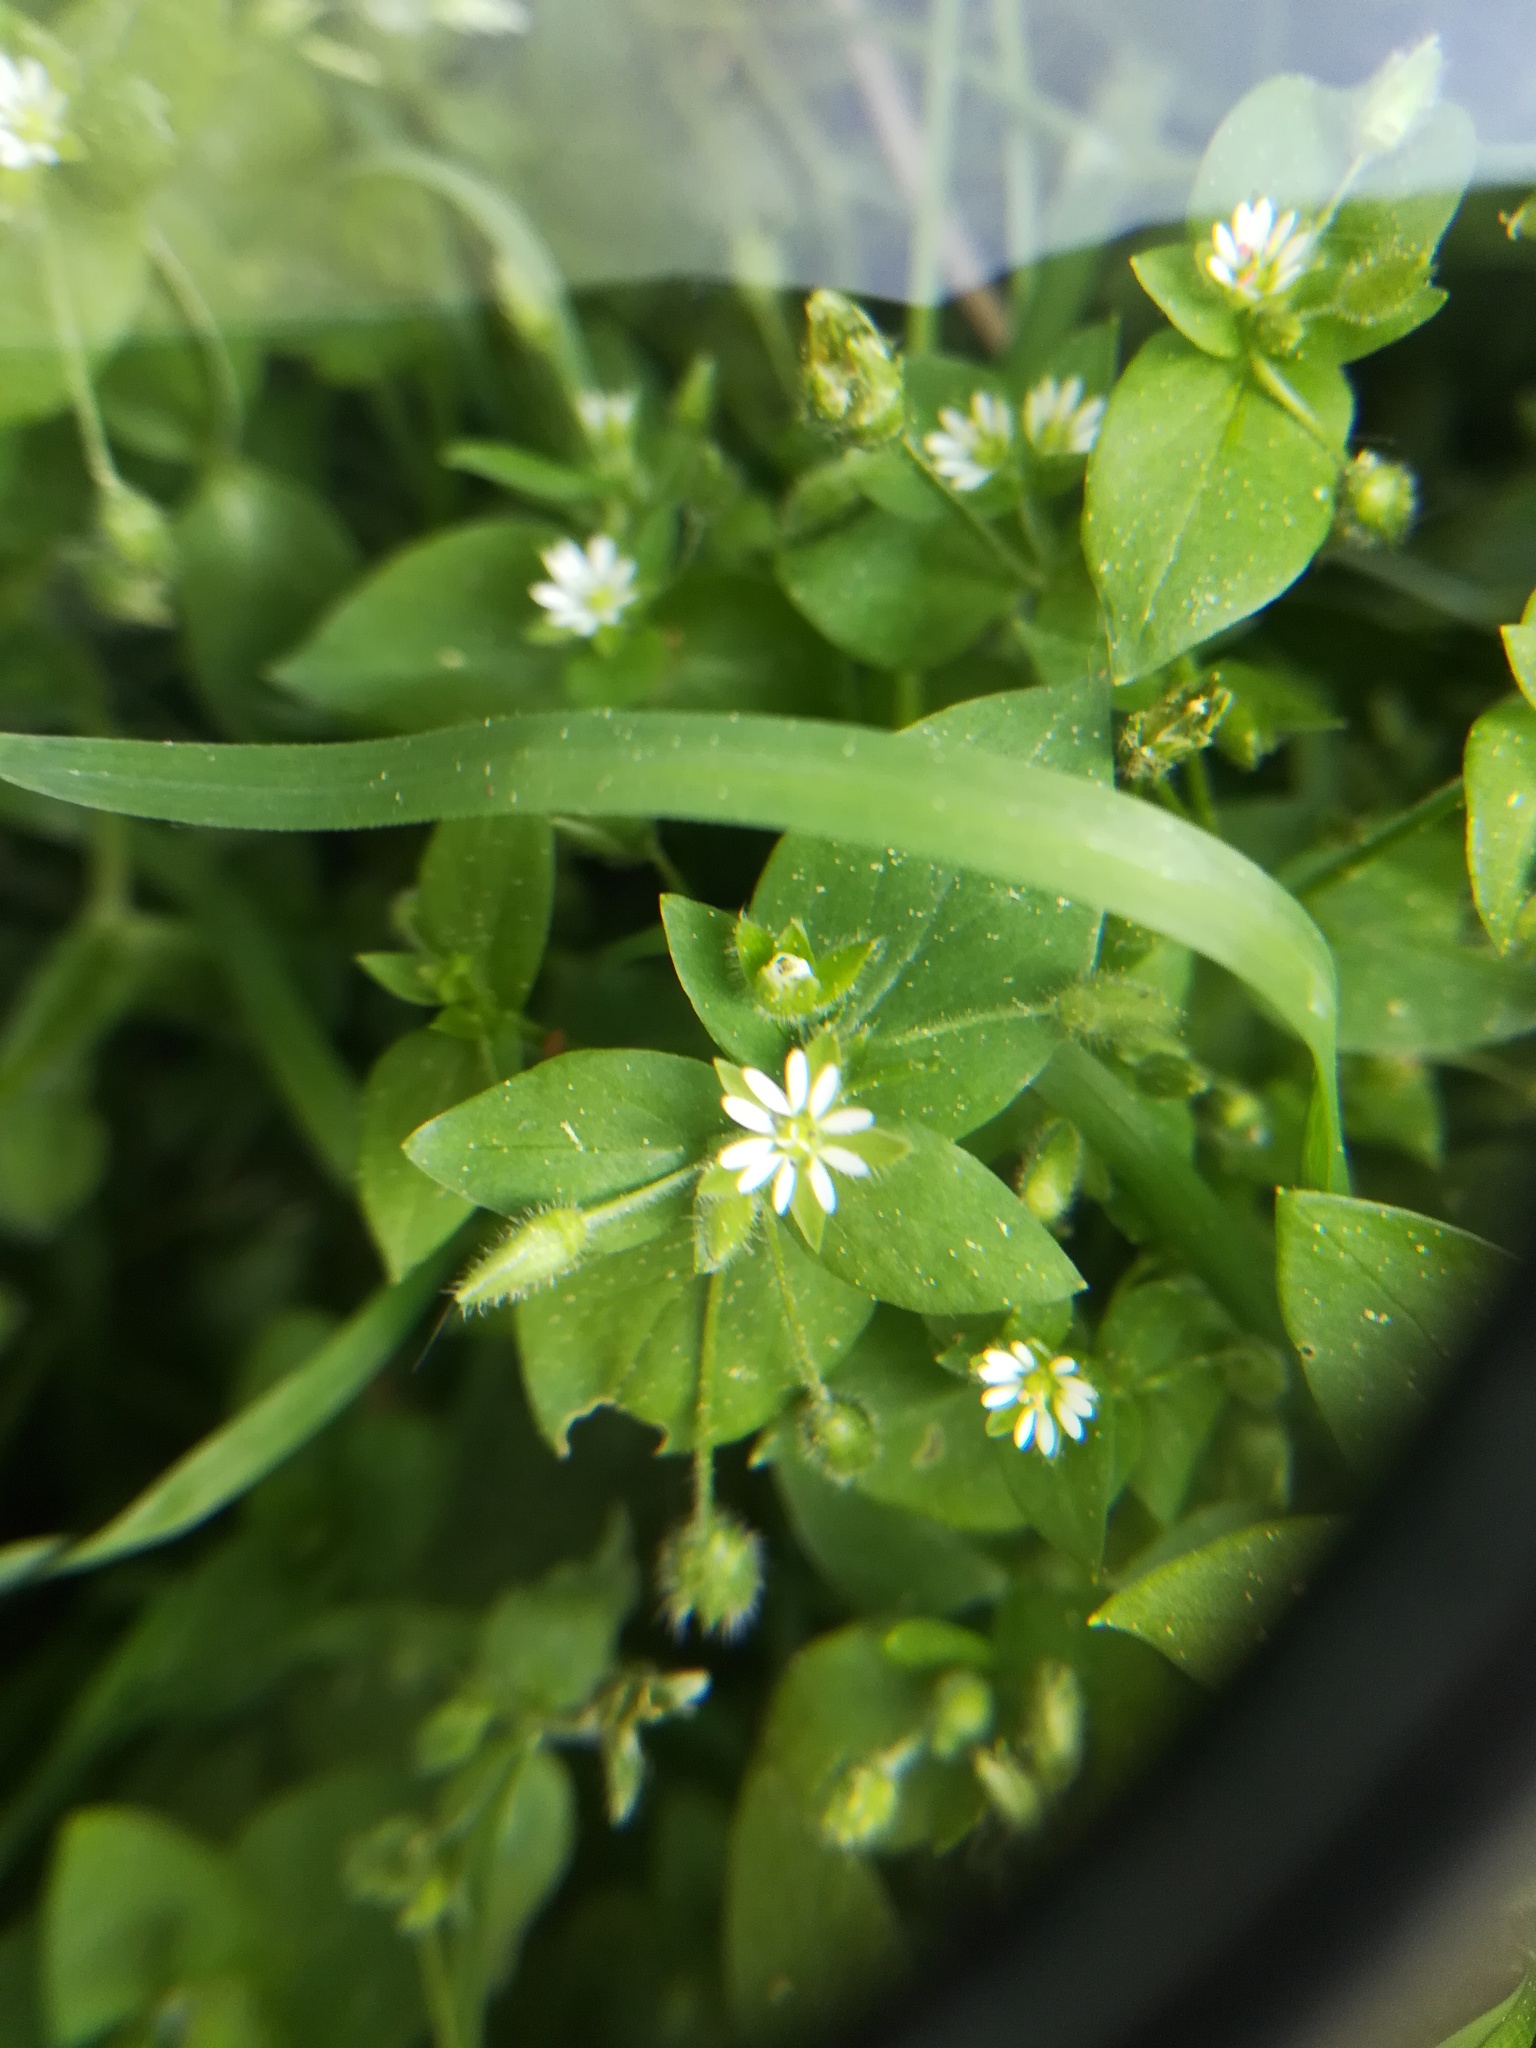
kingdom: Plantae
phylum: Tracheophyta
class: Magnoliopsida
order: Caryophyllales
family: Caryophyllaceae
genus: Stellaria
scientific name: Stellaria media
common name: Common chickweed
